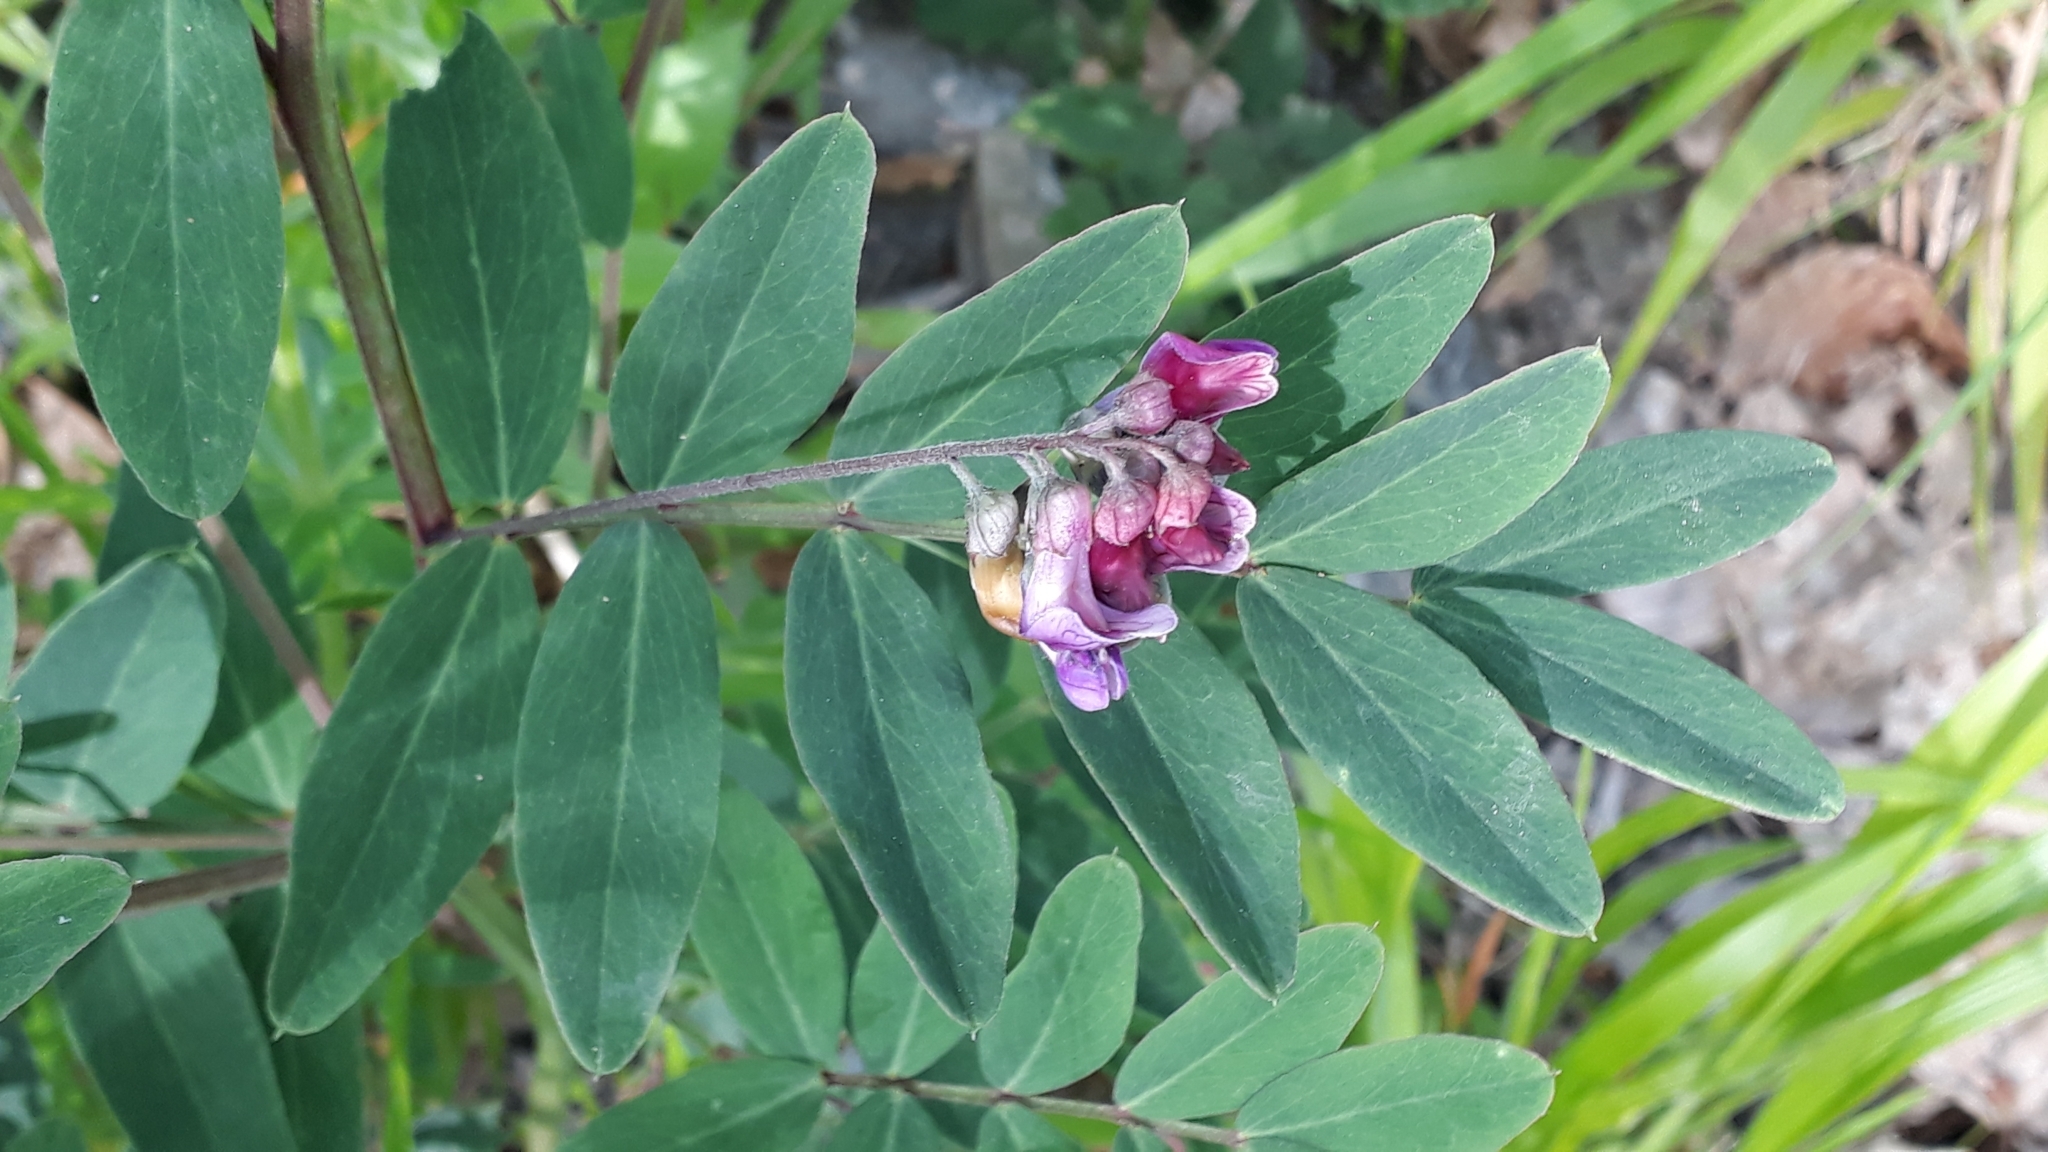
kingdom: Plantae
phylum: Tracheophyta
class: Magnoliopsida
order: Fabales
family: Fabaceae
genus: Lathyrus
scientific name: Lathyrus niger
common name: Black pea
